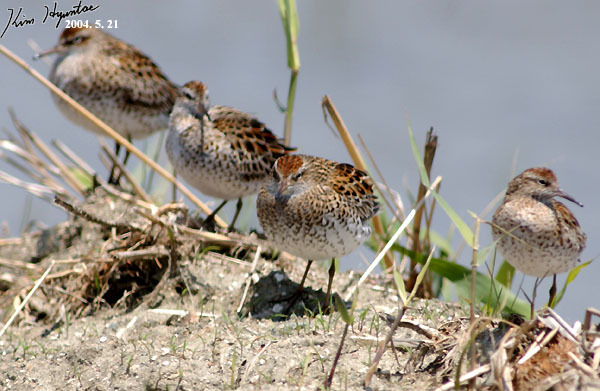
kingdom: Animalia
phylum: Chordata
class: Aves
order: Charadriiformes
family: Scolopacidae
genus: Calidris
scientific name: Calidris acuminata
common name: Sharp-tailed sandpiper
